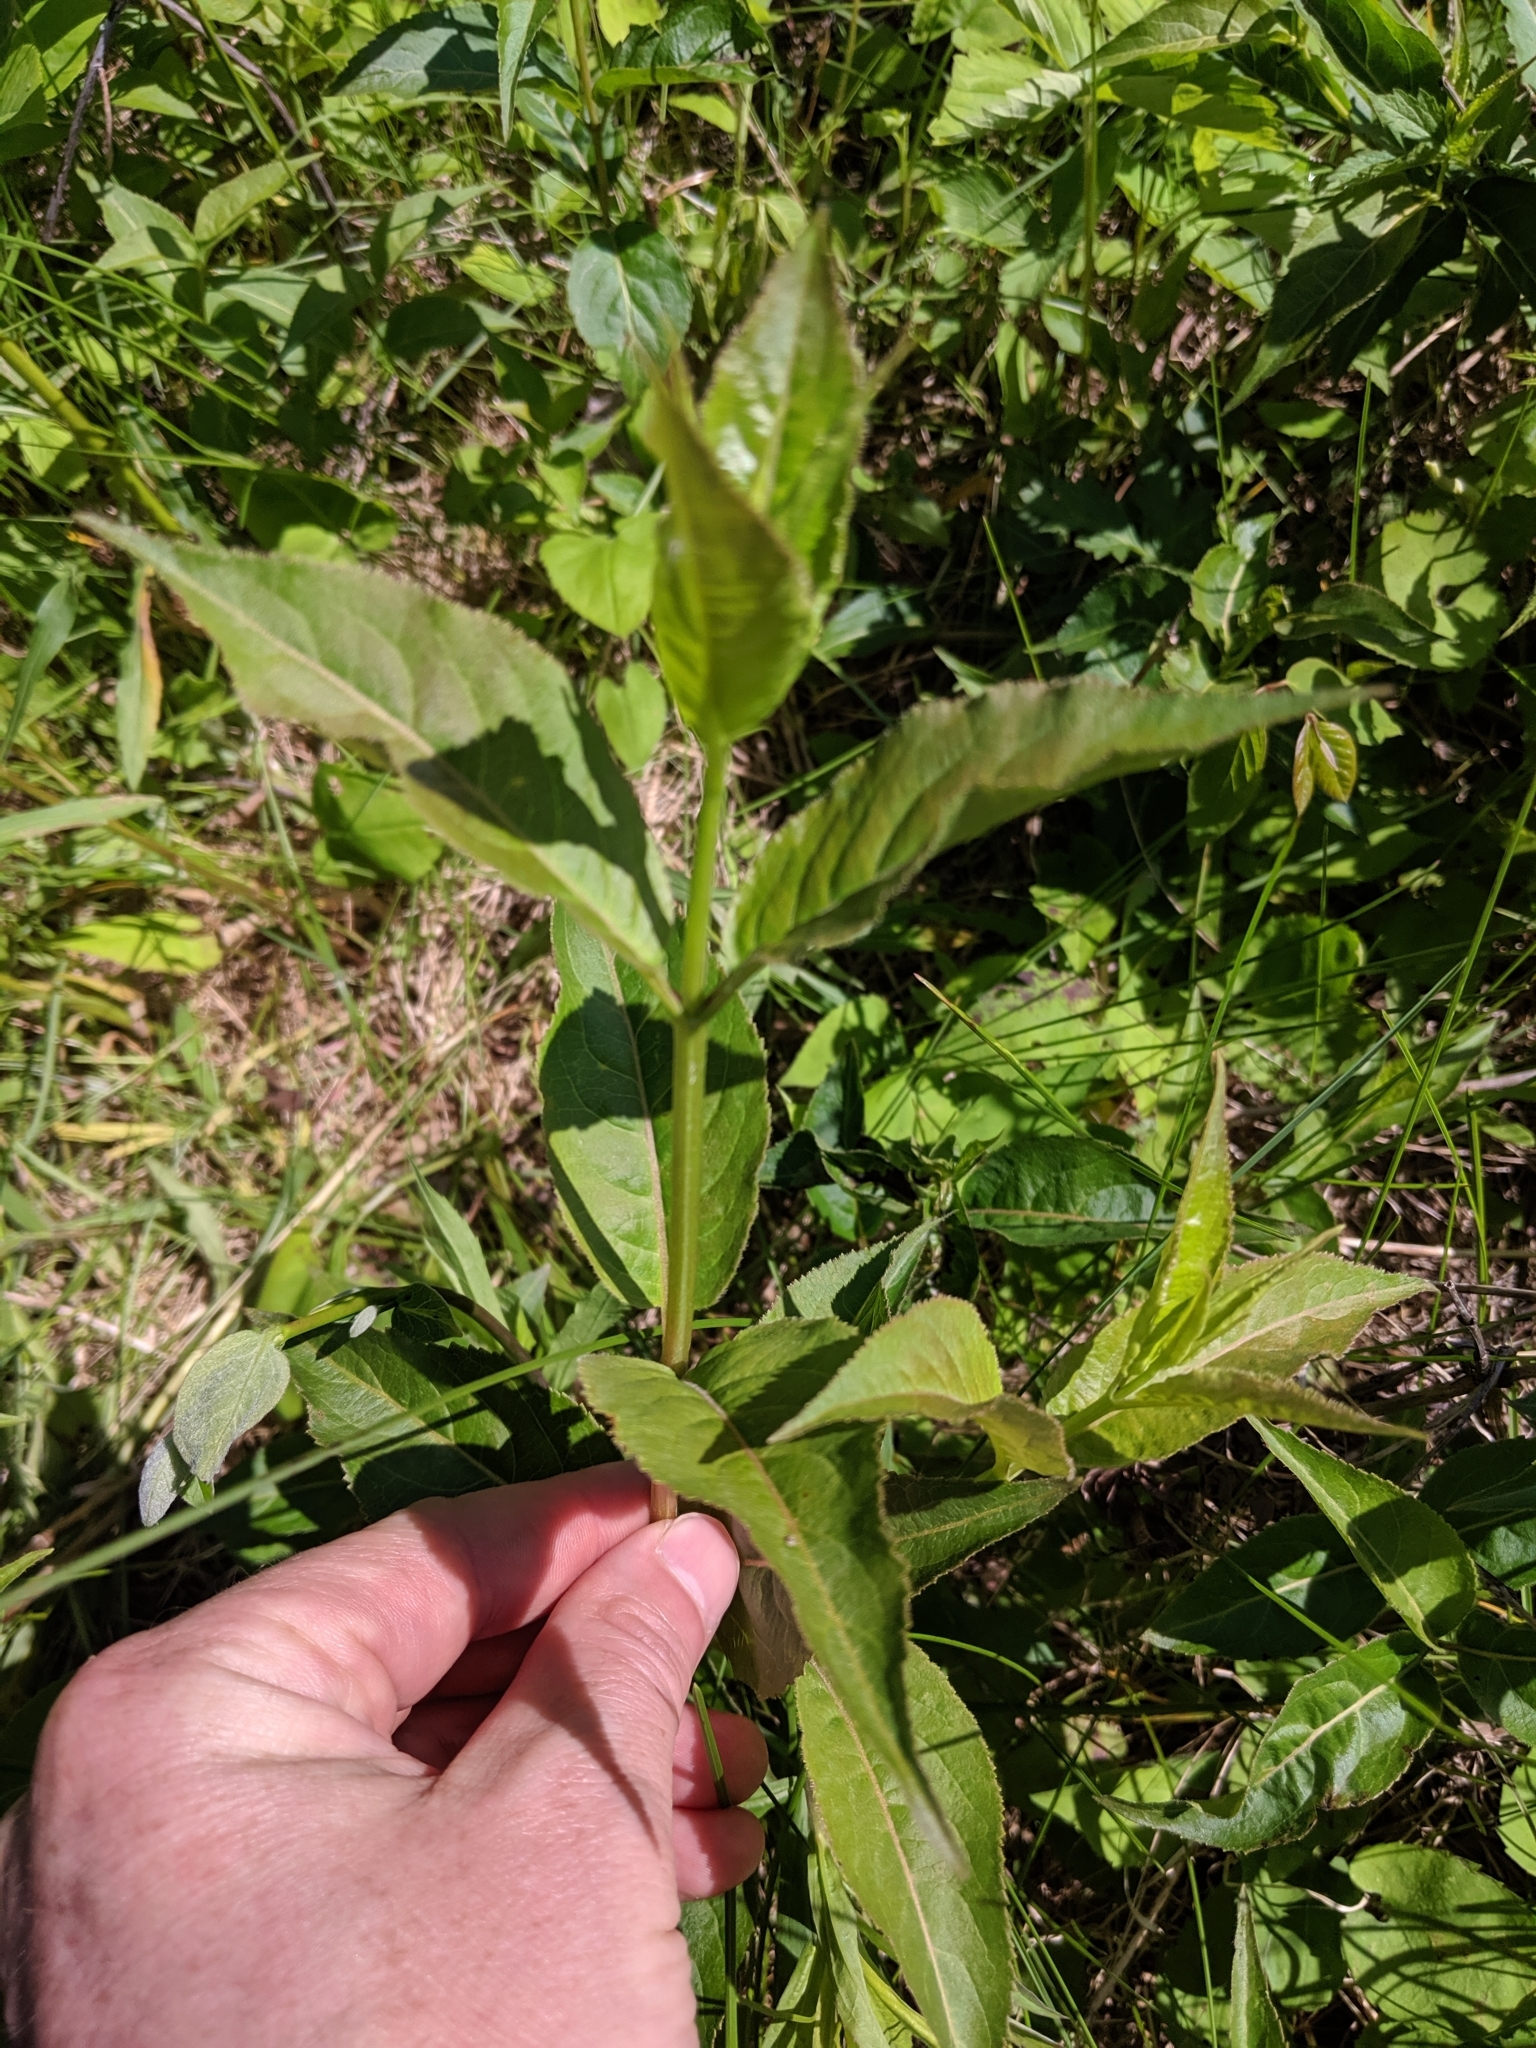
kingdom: Plantae
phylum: Tracheophyta
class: Magnoliopsida
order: Dipsacales
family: Caprifoliaceae
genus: Diervilla
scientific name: Diervilla lonicera
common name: Bush-honeysuckle
